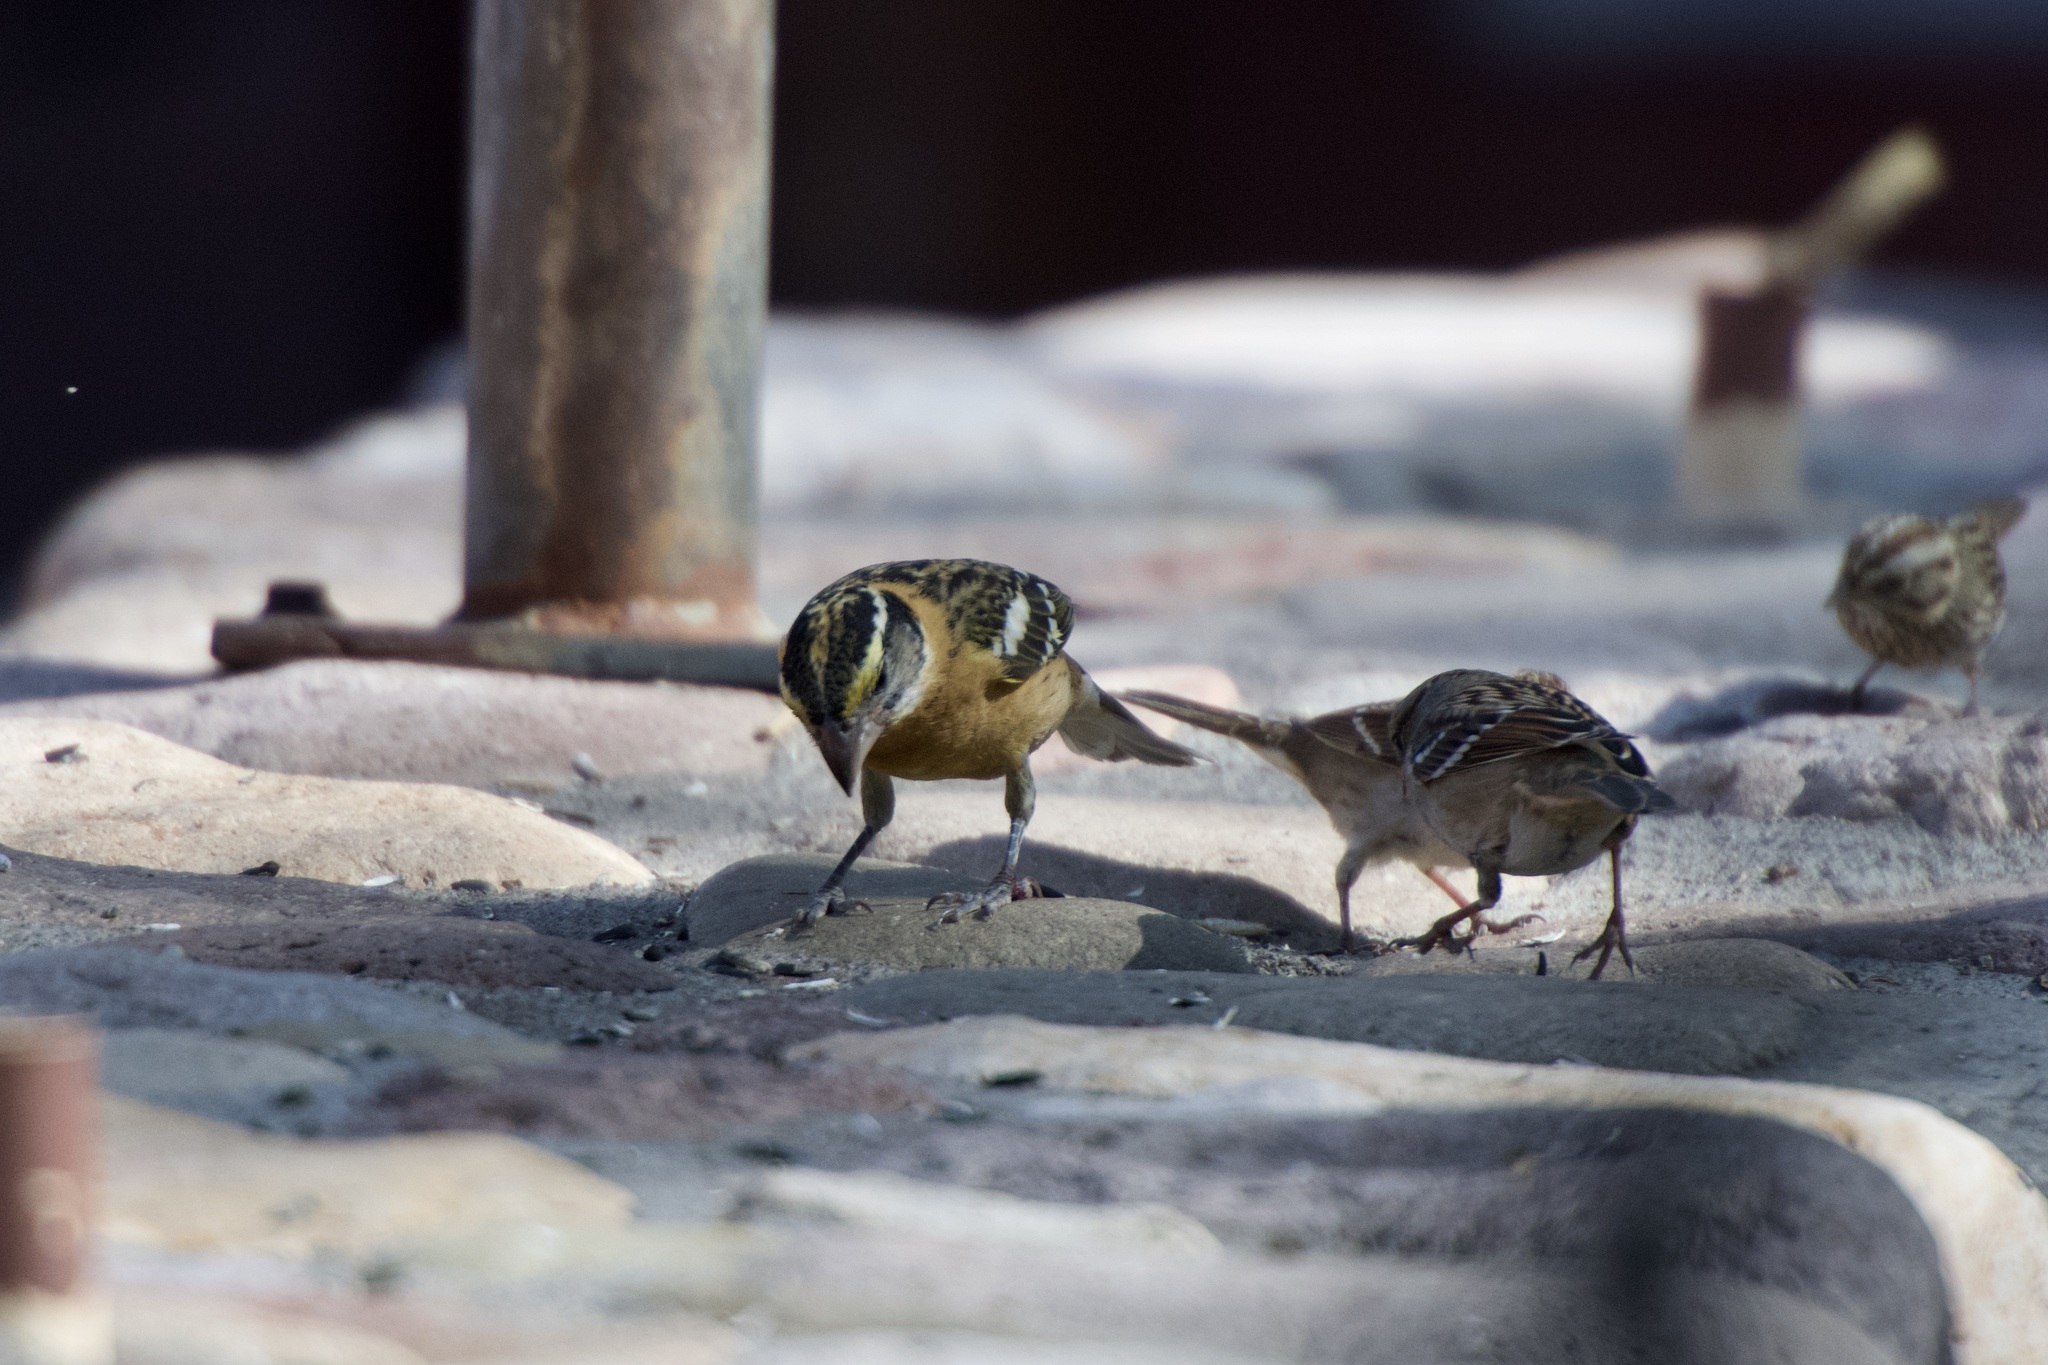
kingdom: Animalia
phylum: Chordata
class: Aves
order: Passeriformes
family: Cardinalidae
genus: Pheucticus
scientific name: Pheucticus melanocephalus
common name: Black-headed grosbeak
